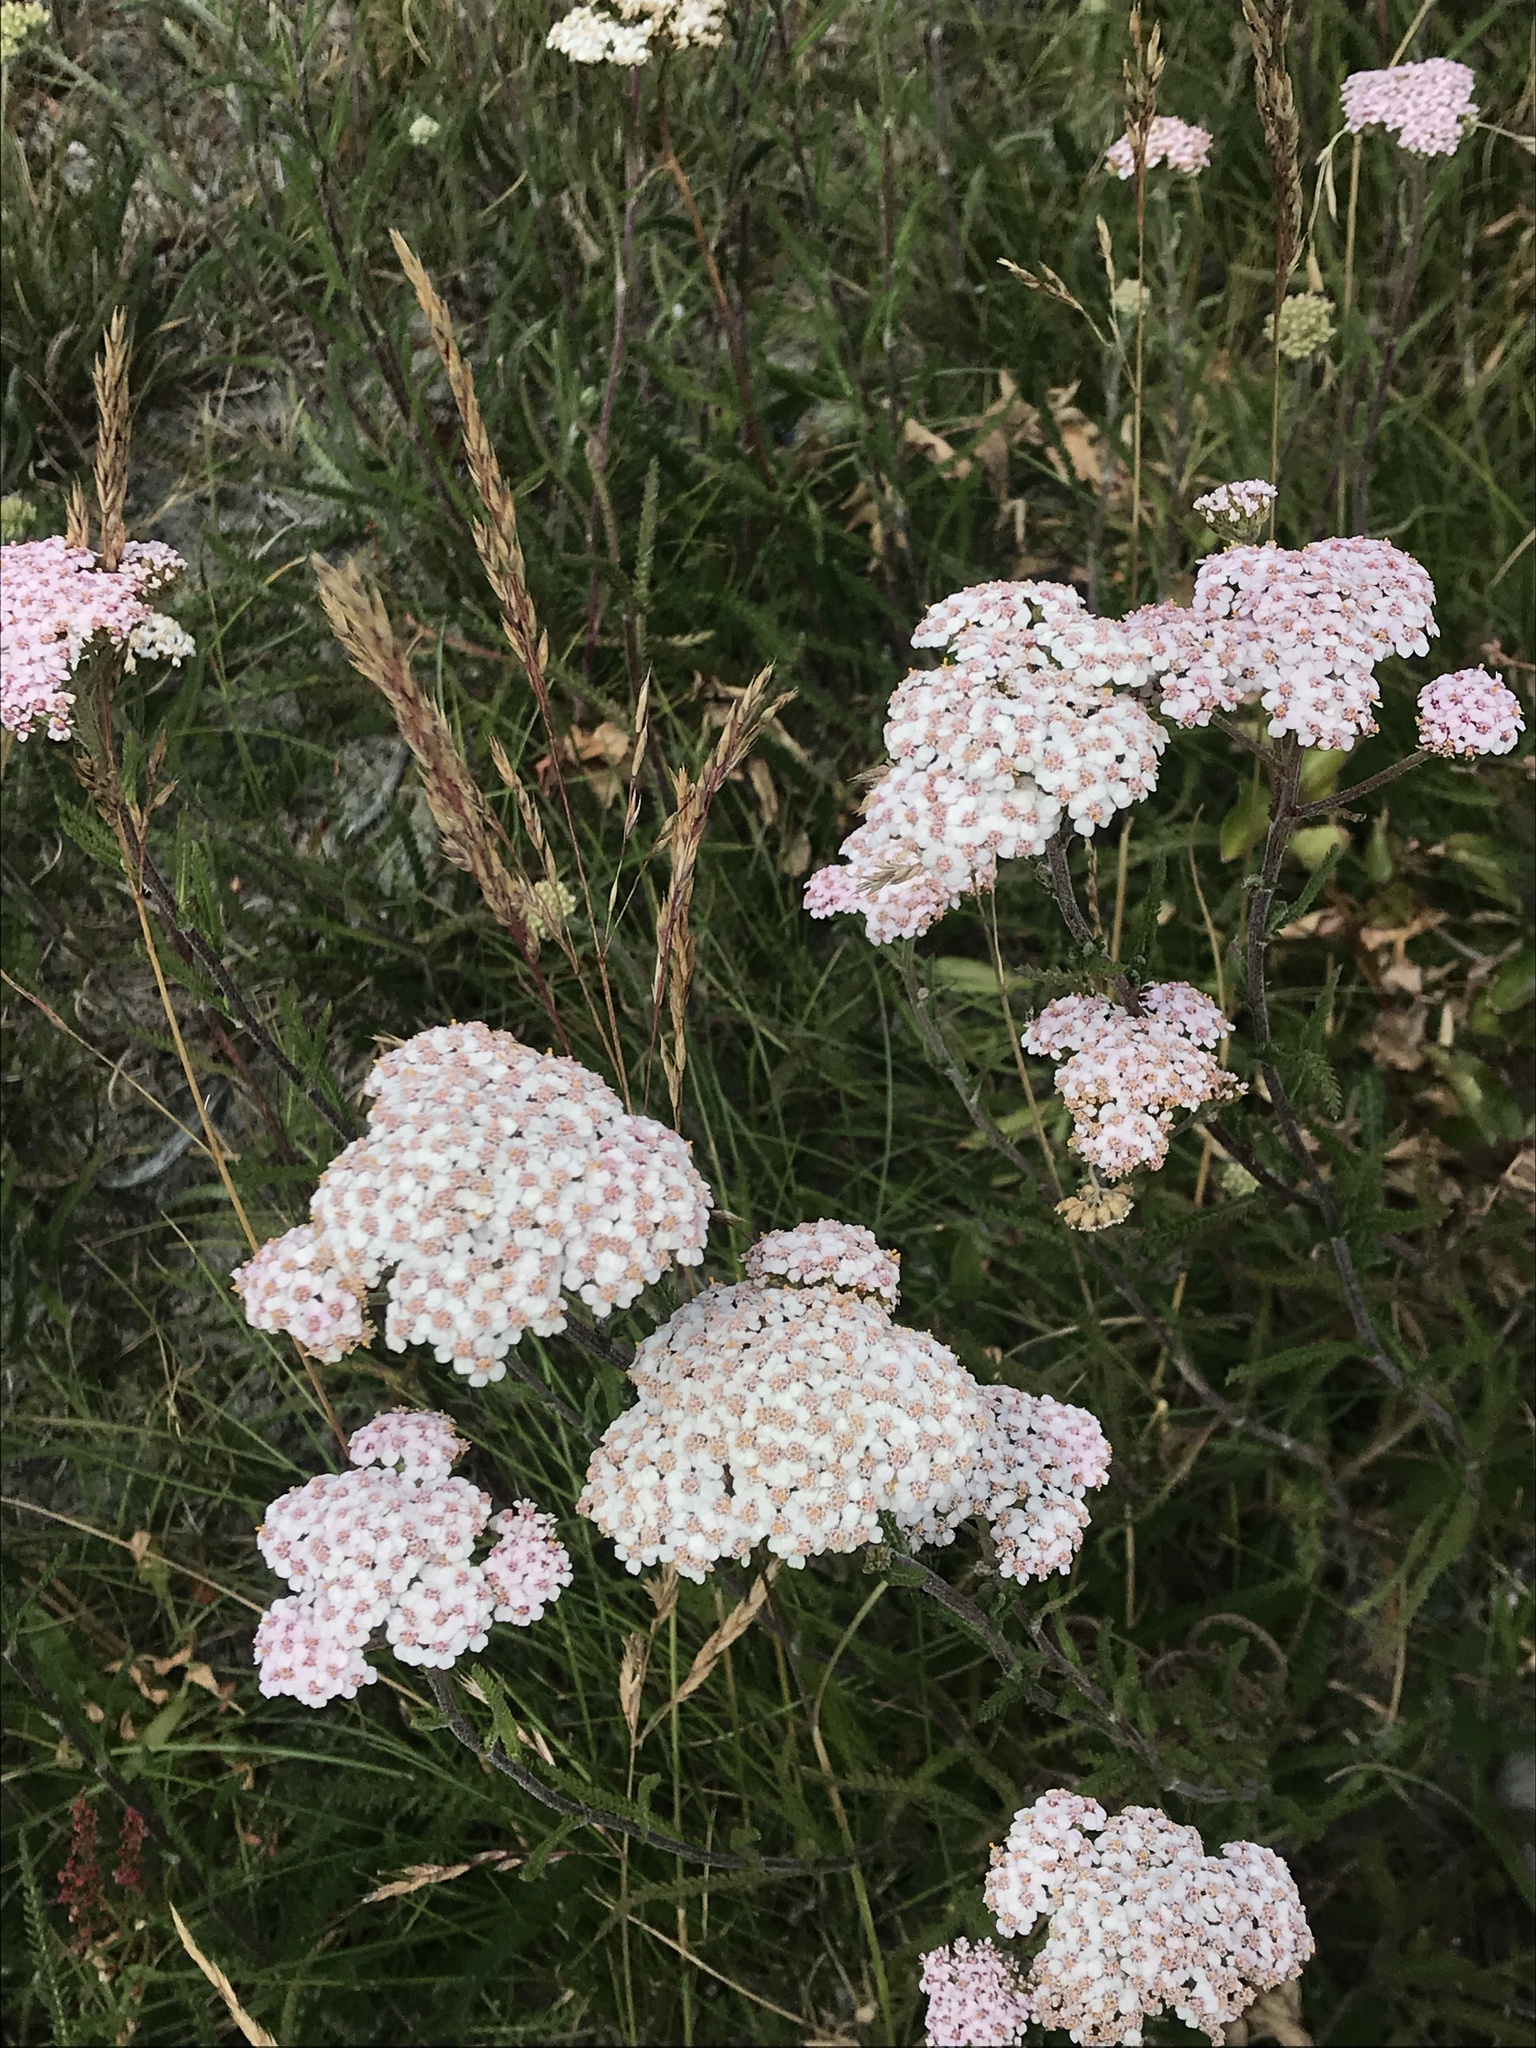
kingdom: Plantae
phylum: Tracheophyta
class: Magnoliopsida
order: Asterales
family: Asteraceae
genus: Achillea
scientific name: Achillea millefolium
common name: Yarrow
